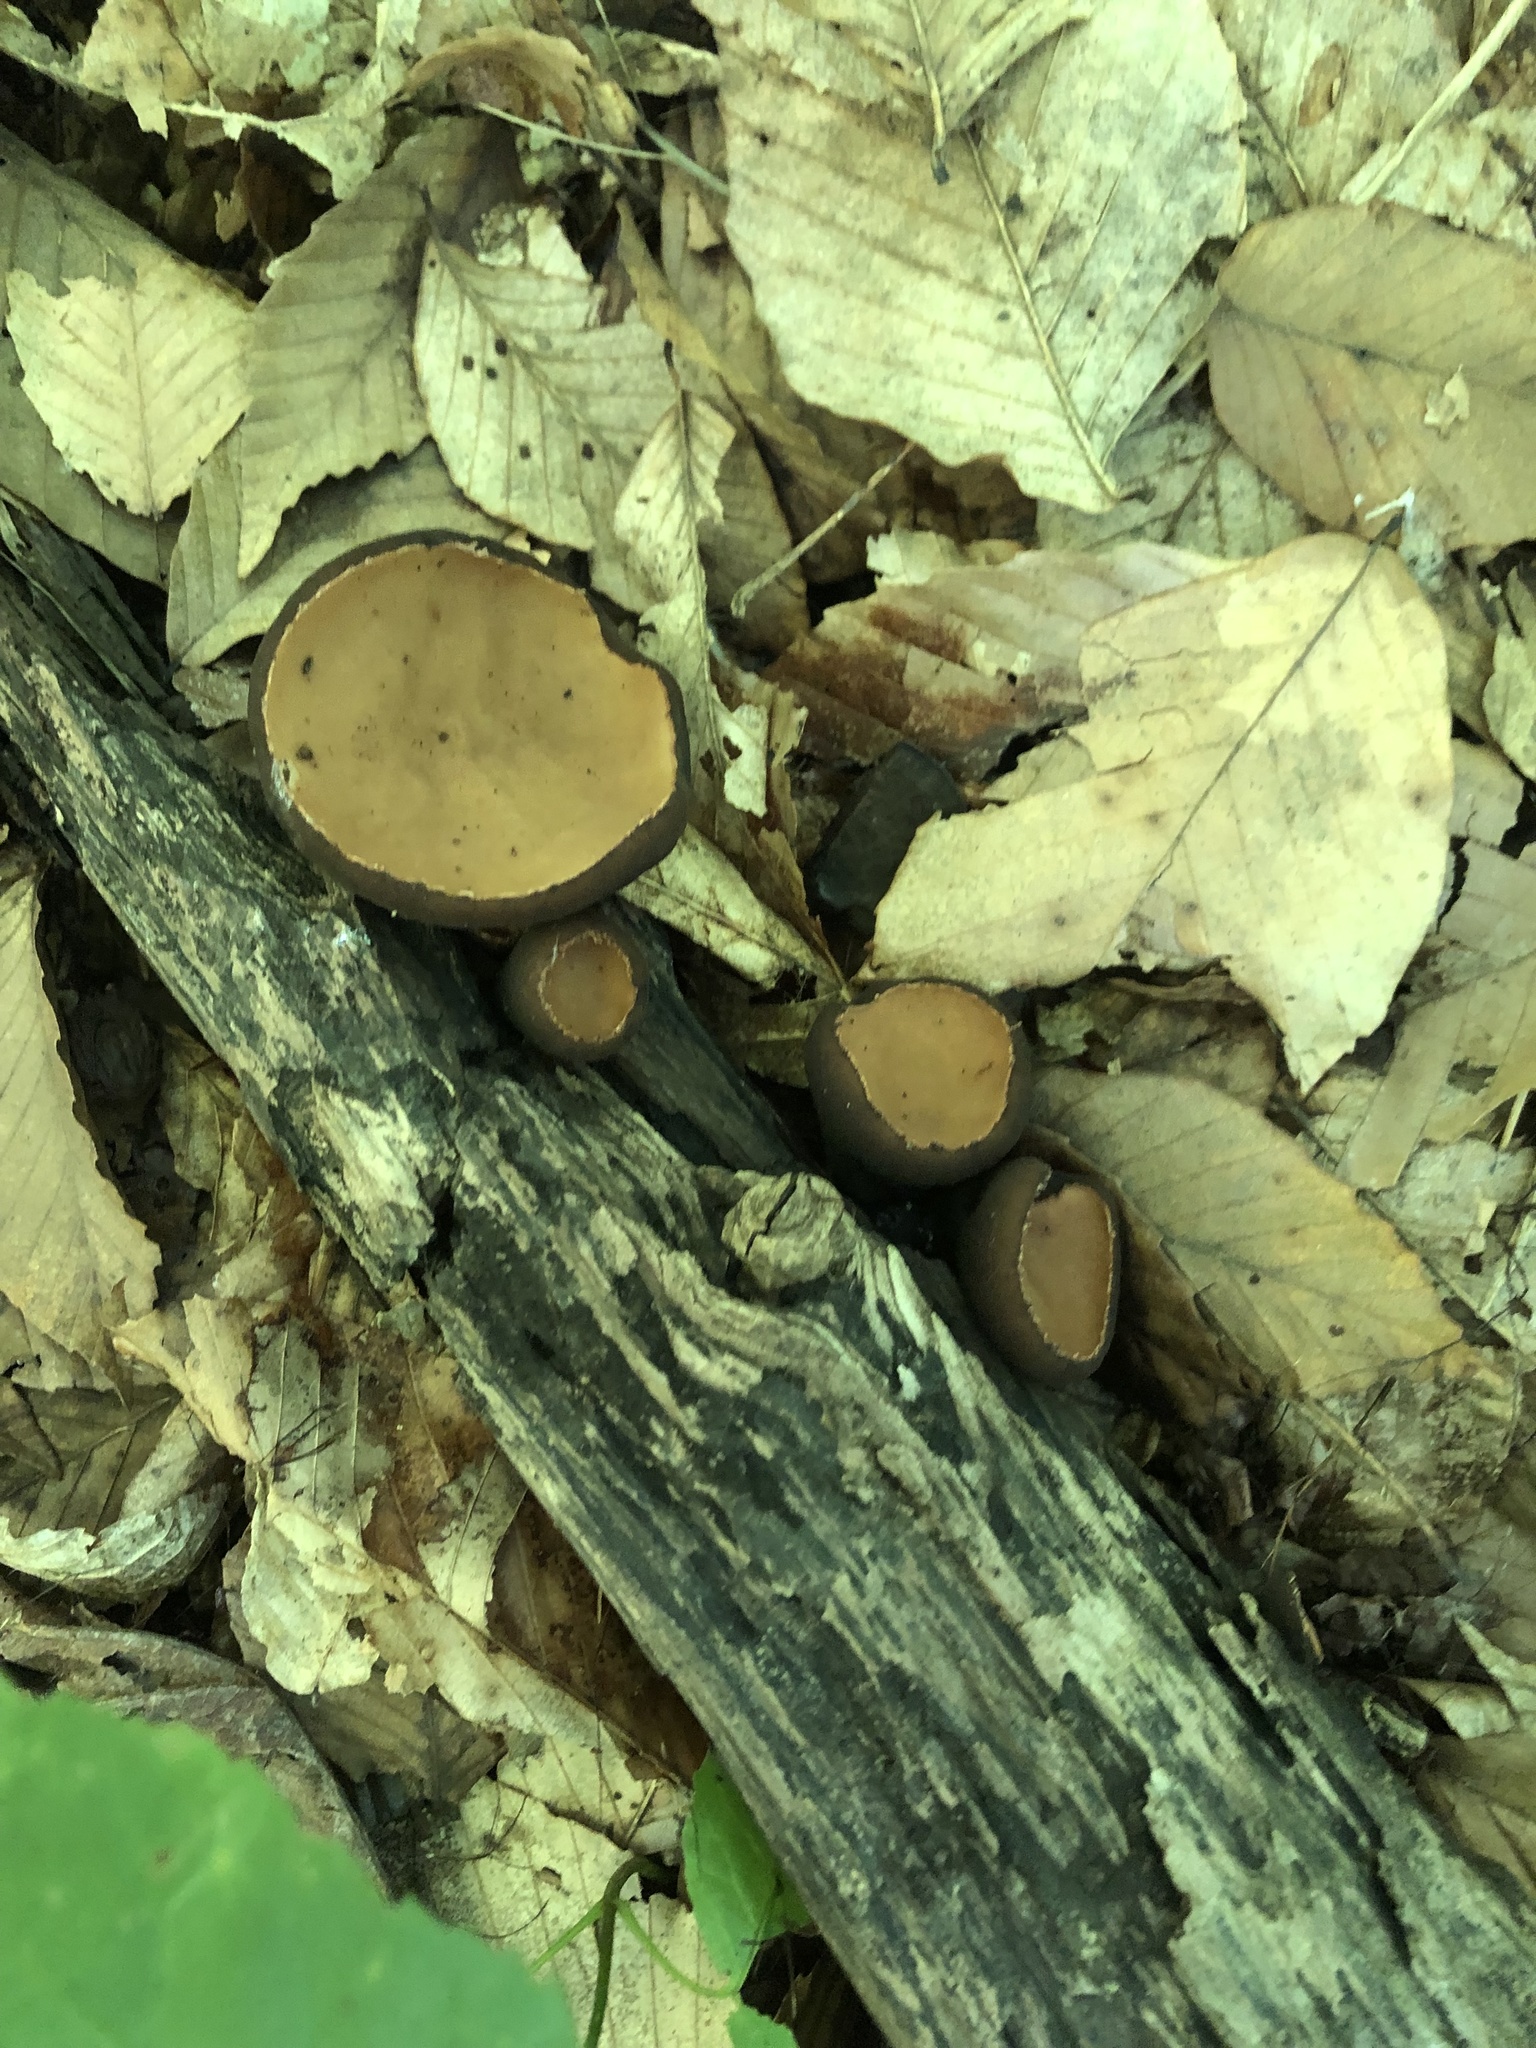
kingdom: Fungi
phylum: Ascomycota
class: Pezizomycetes
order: Pezizales
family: Sarcosomataceae
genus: Galiella
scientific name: Galiella rufa
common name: Hairy rubber cup
